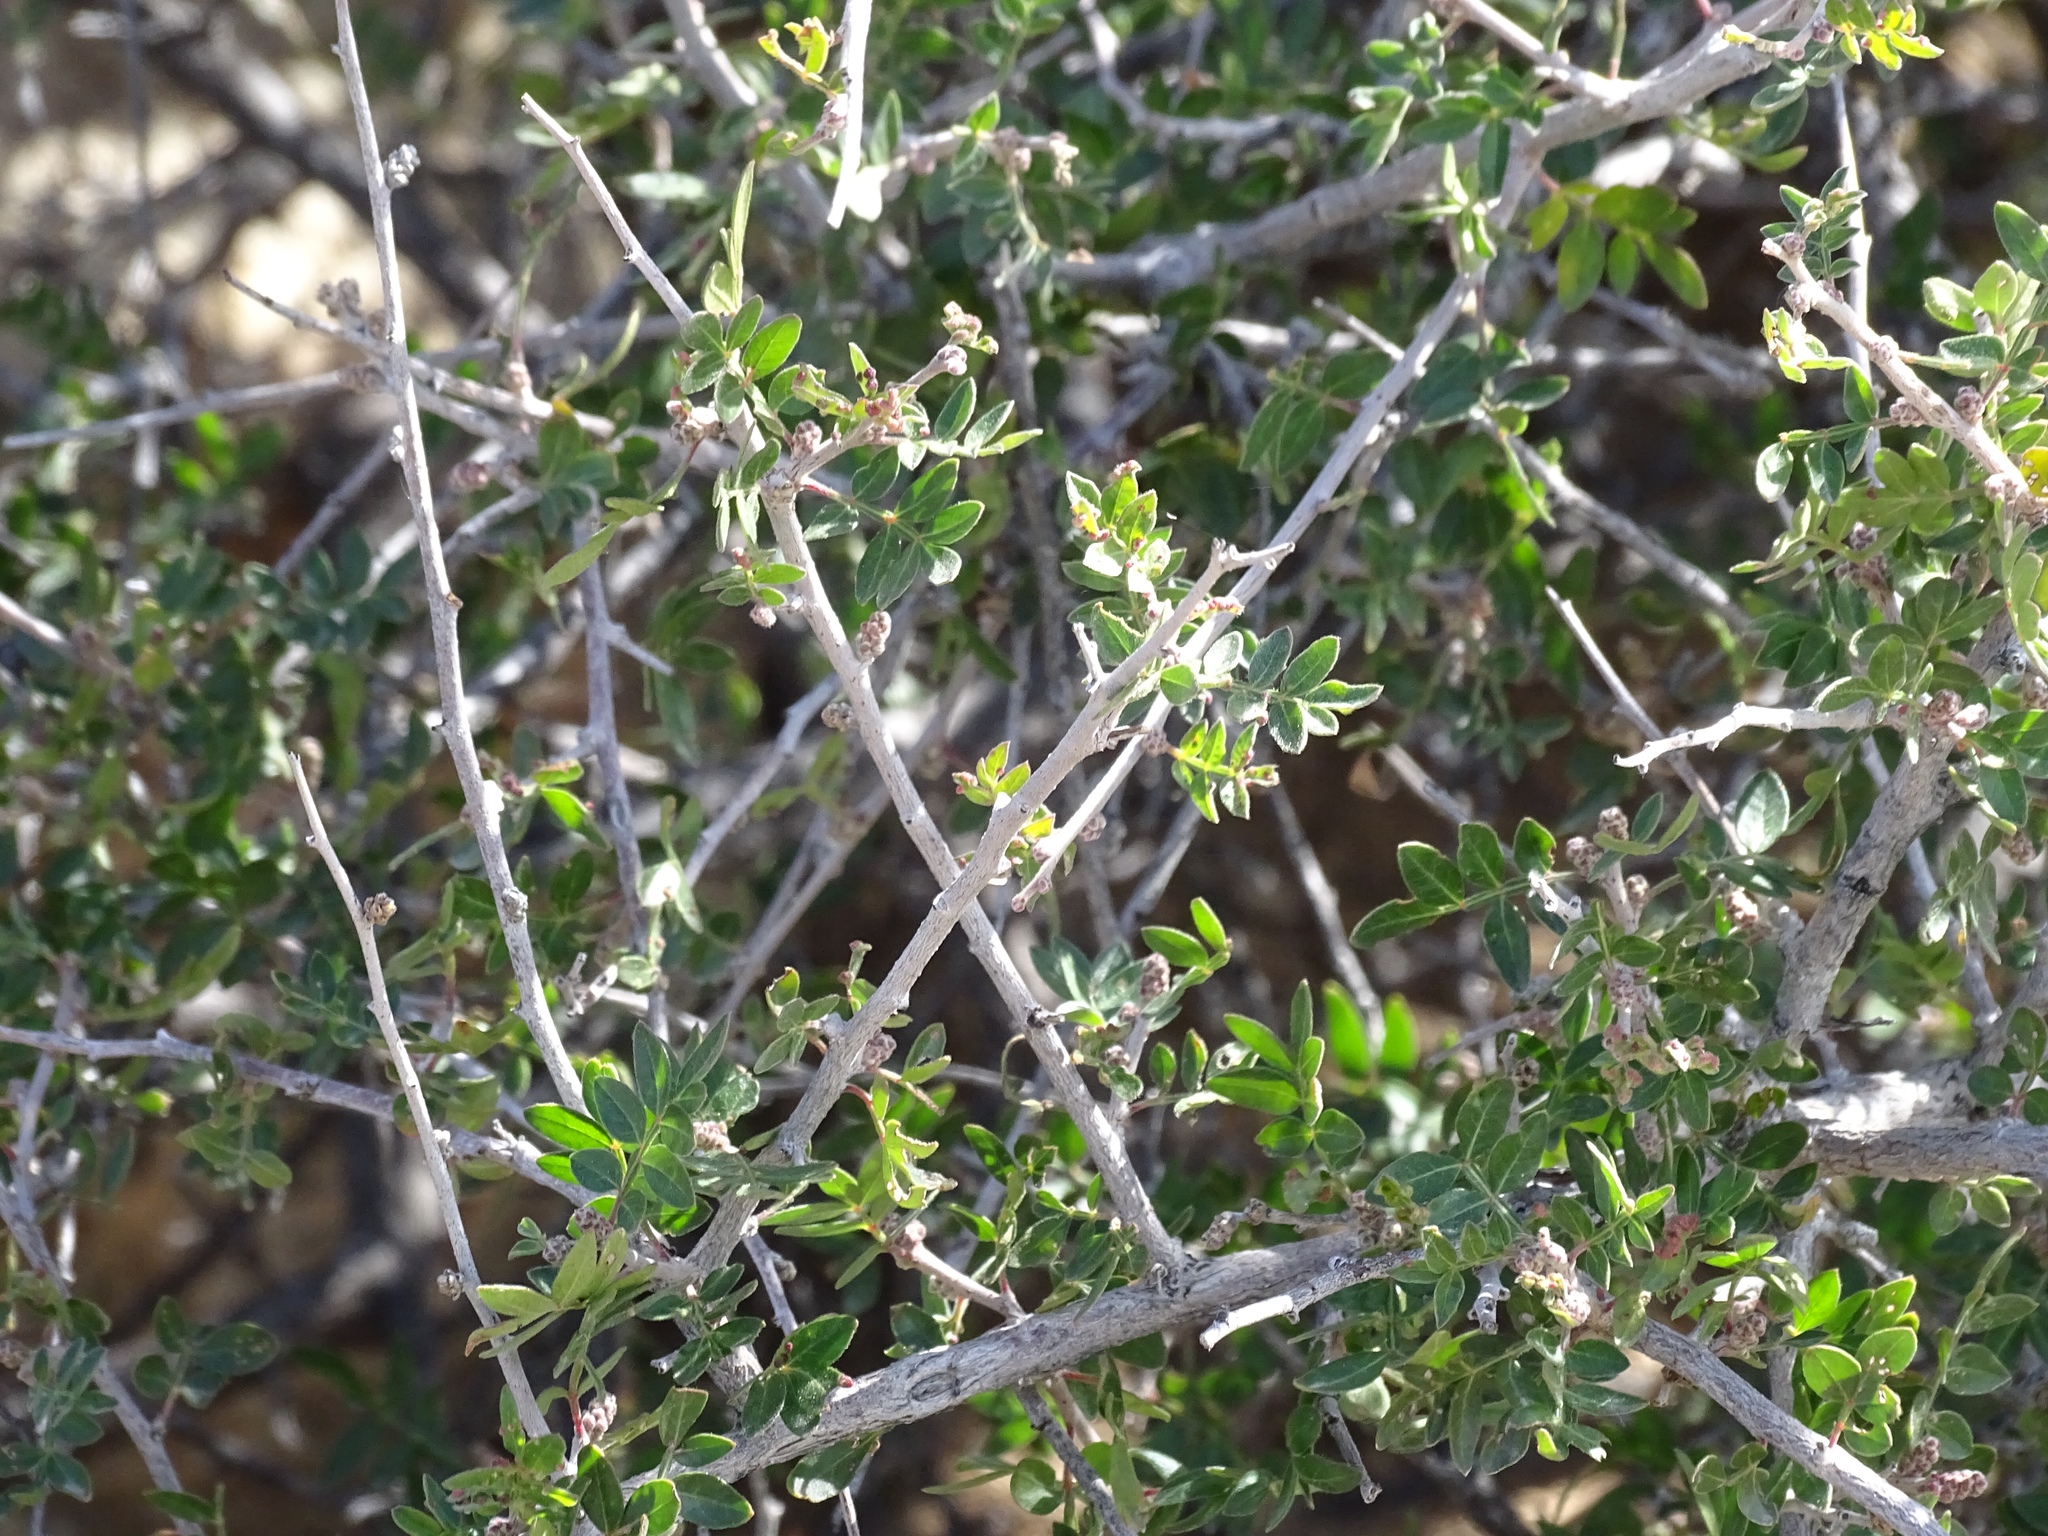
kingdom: Plantae
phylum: Tracheophyta
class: Magnoliopsida
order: Sapindales
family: Anacardiaceae
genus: Rhus
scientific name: Rhus microphylla
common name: Desert sumac
